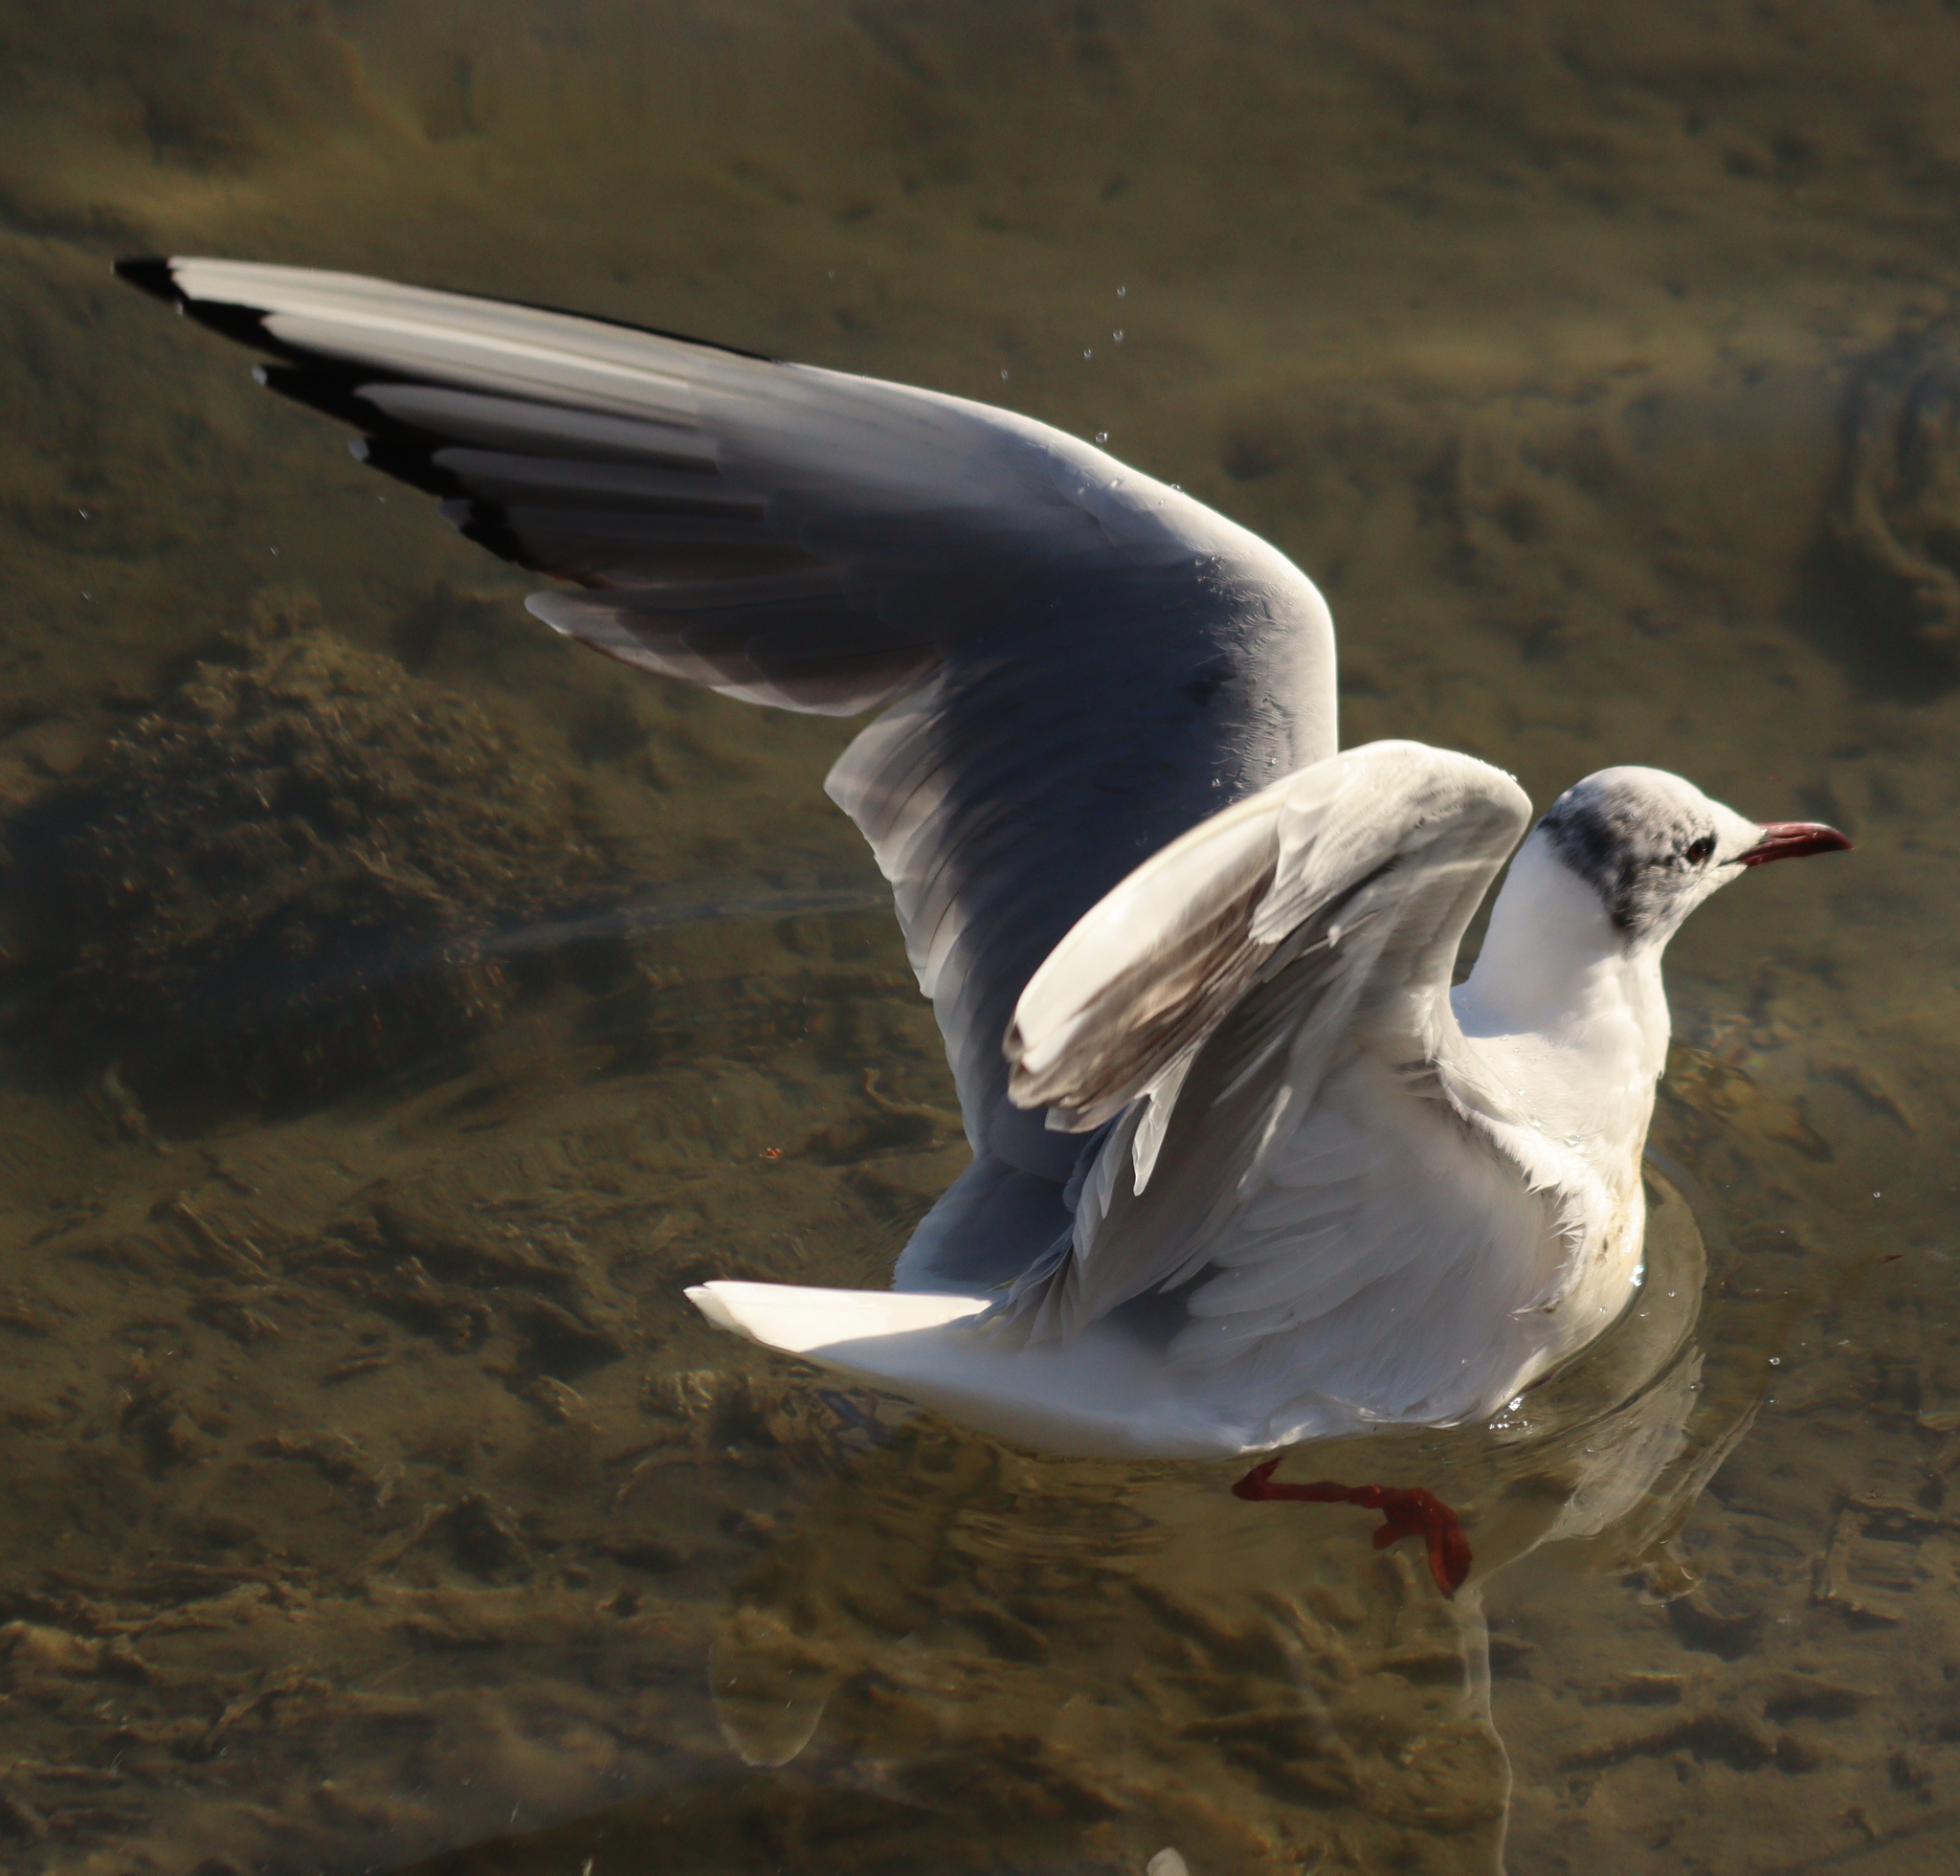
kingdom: Animalia
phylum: Chordata
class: Aves
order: Charadriiformes
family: Laridae
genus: Chroicocephalus
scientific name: Chroicocephalus ridibundus
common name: Black-headed gull
